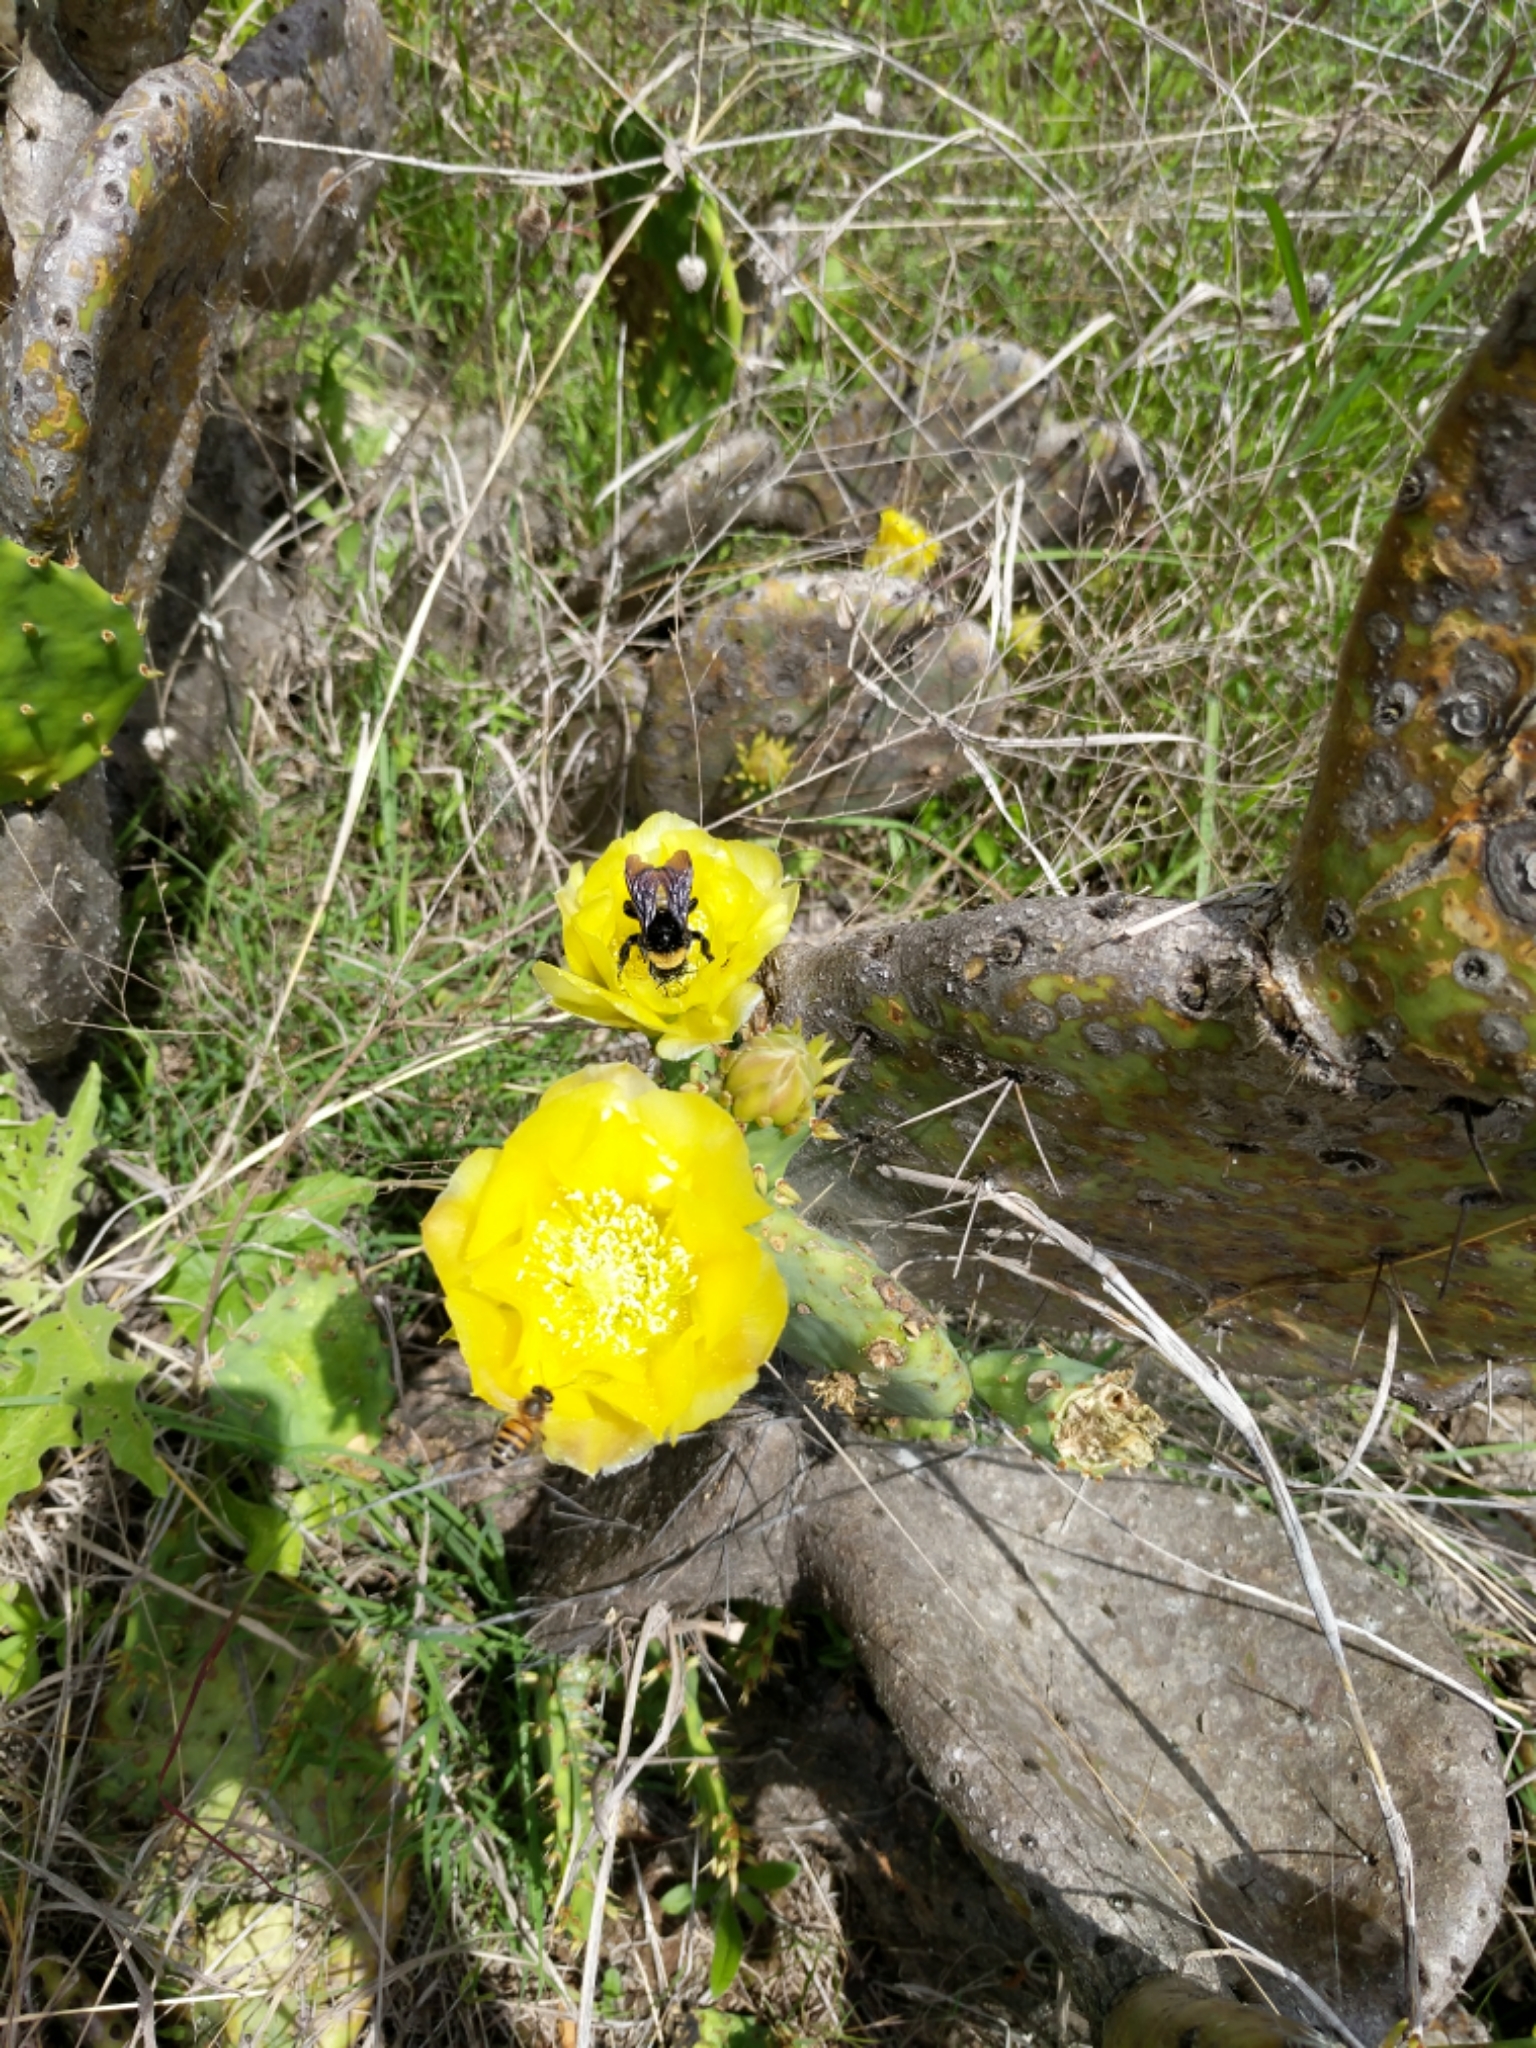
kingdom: Animalia
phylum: Arthropoda
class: Insecta
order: Hymenoptera
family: Apidae
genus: Bombus
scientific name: Bombus pensylvanicus
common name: Bumble bee
